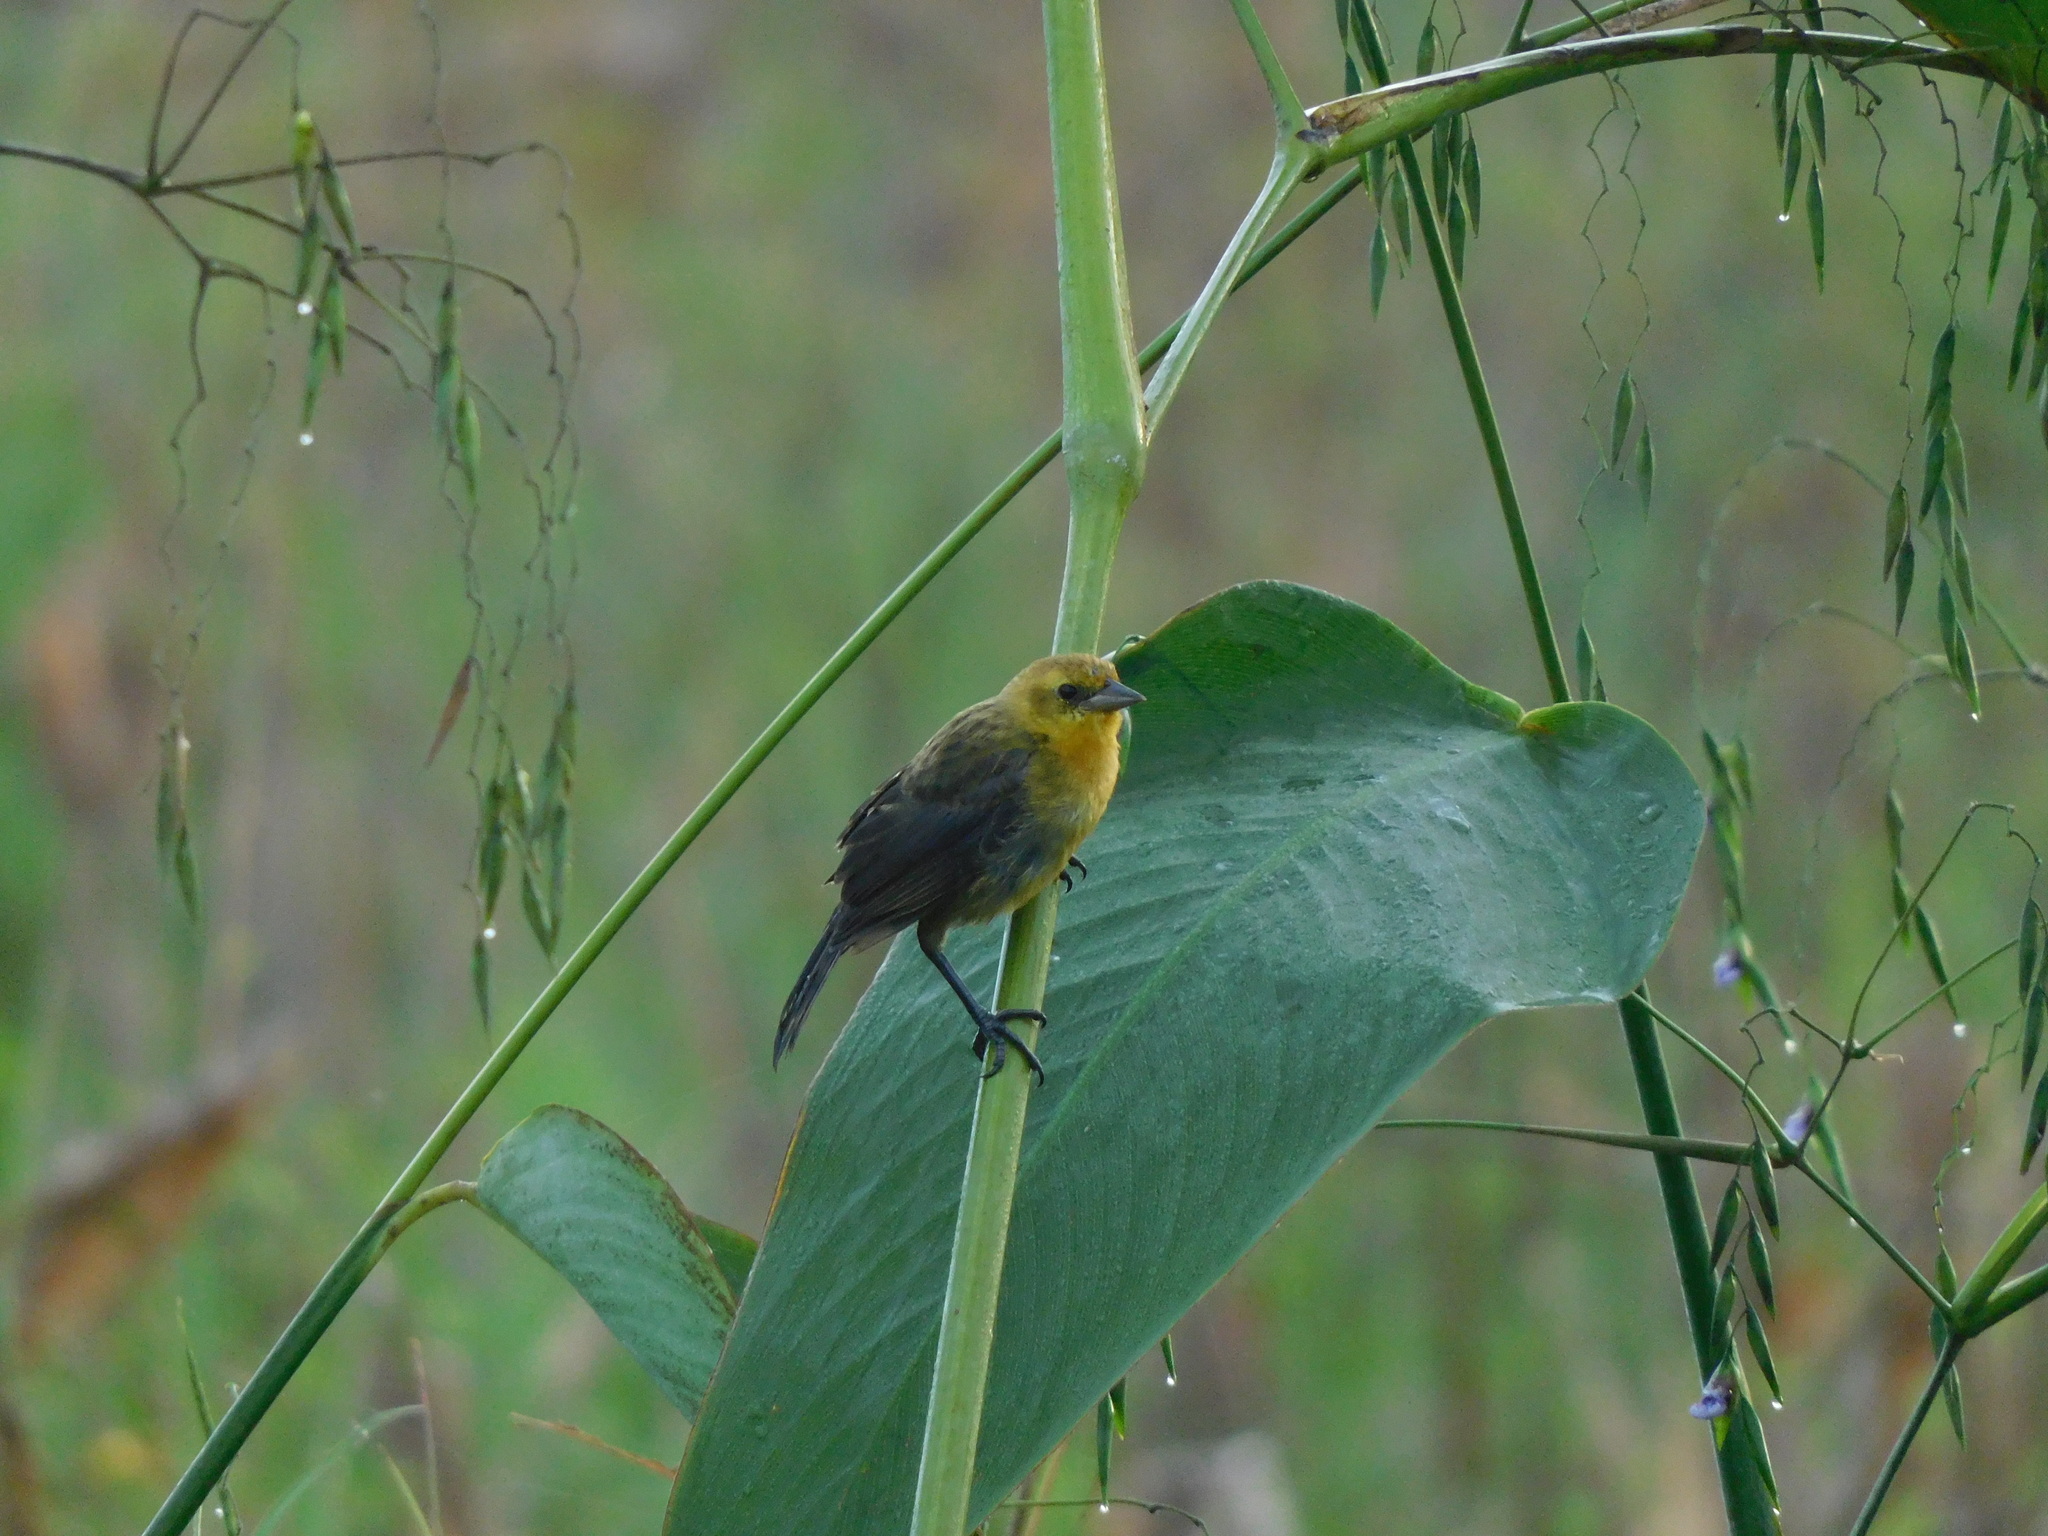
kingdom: Animalia
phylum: Chordata
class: Aves
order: Passeriformes
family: Icteridae
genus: Chrysomus
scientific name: Chrysomus icterocephalus
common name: Yellow-hooded blackbird
